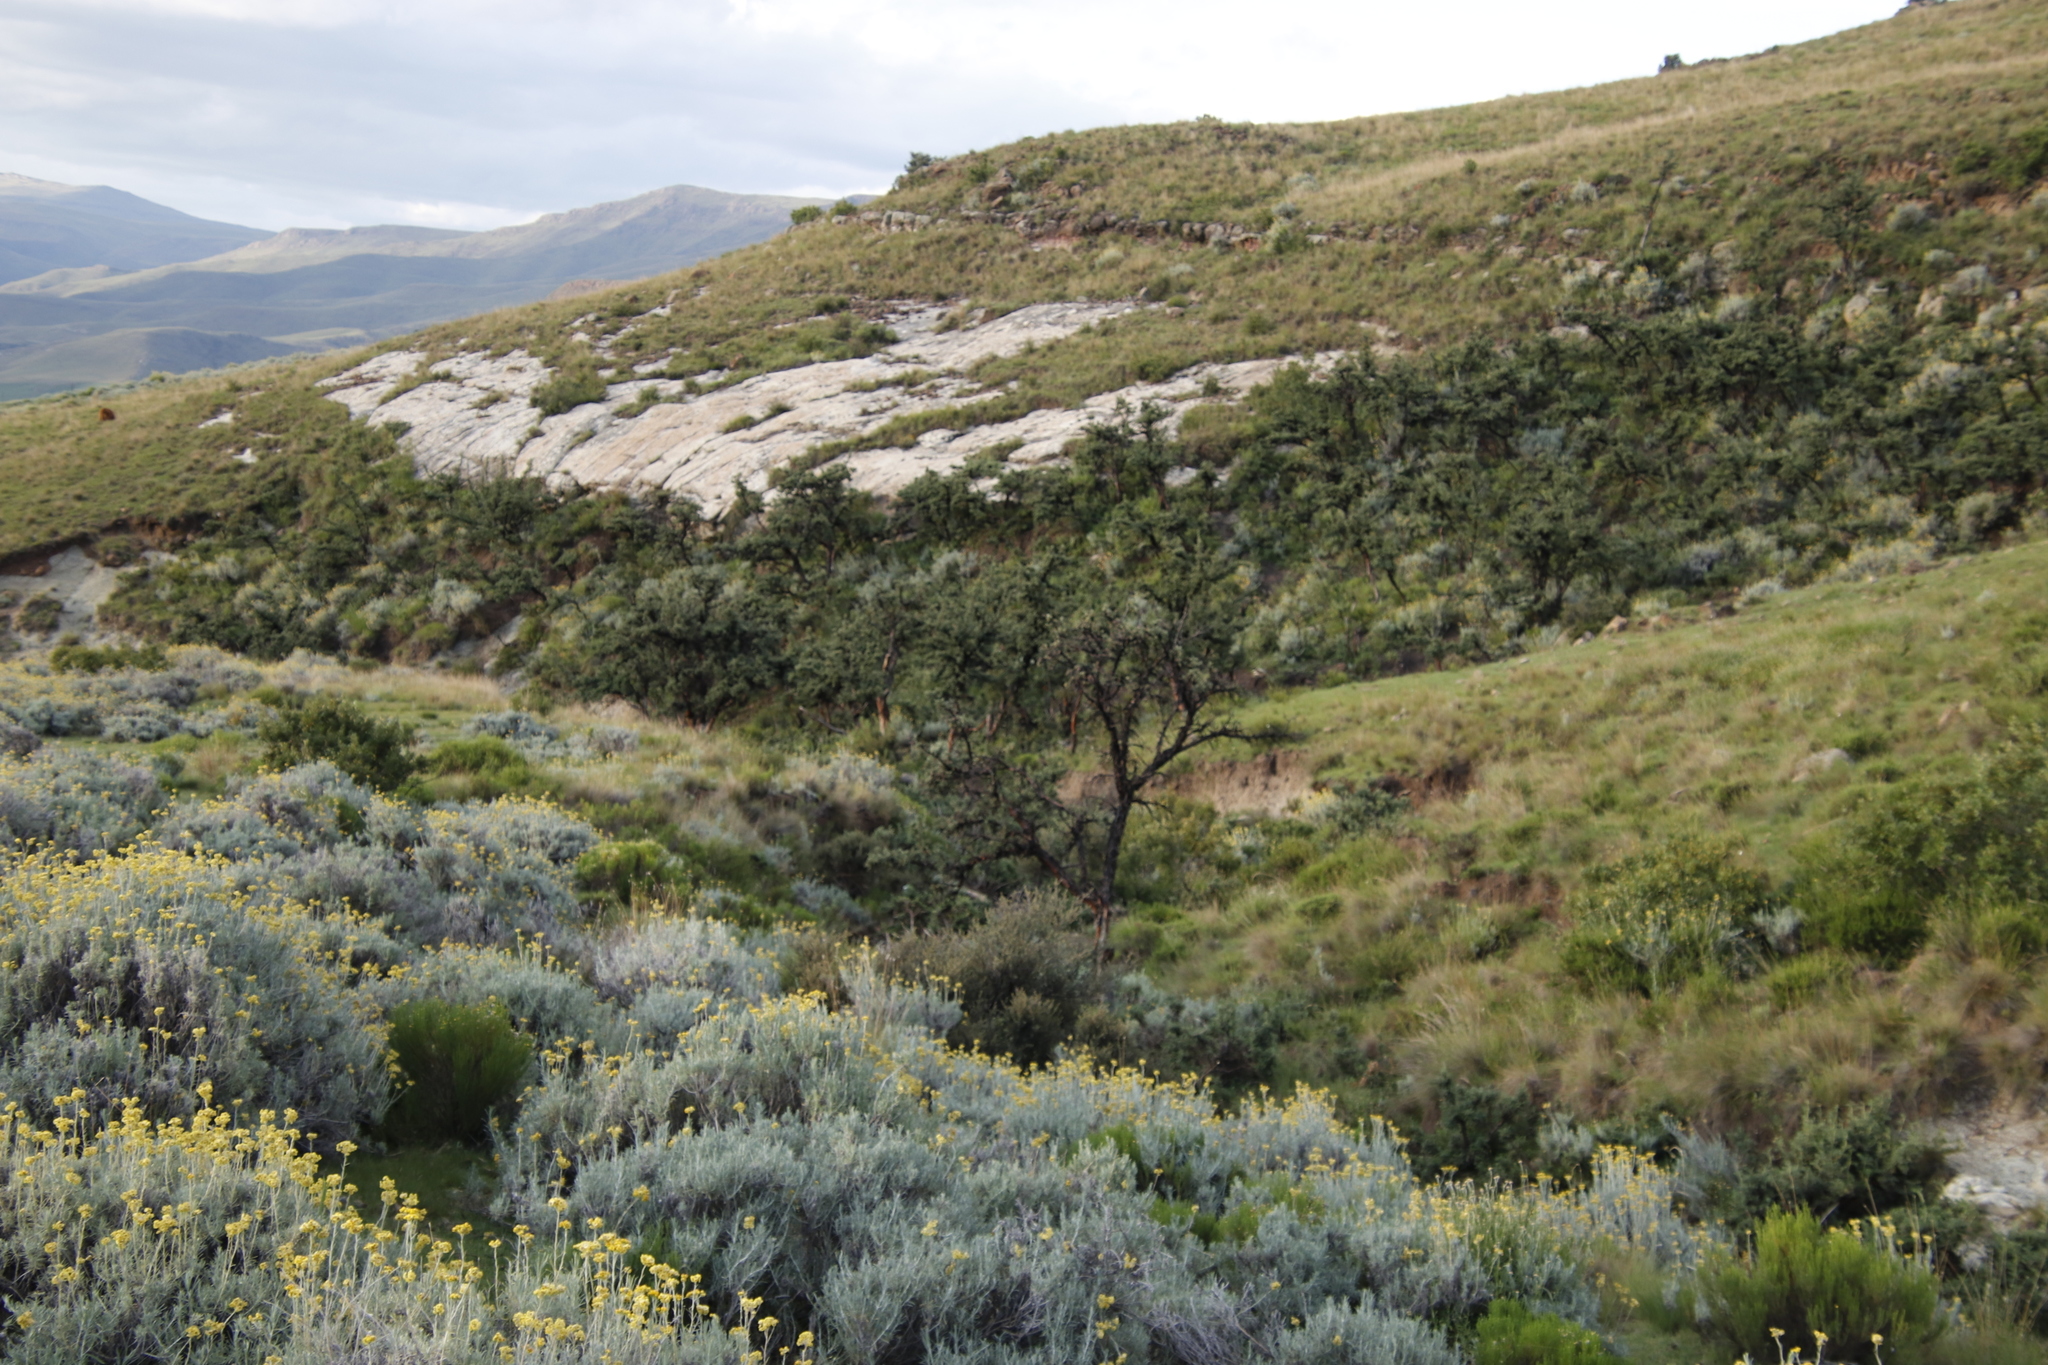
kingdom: Plantae
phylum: Tracheophyta
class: Magnoliopsida
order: Rosales
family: Rosaceae
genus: Leucosidea
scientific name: Leucosidea sericea
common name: Oldwood
